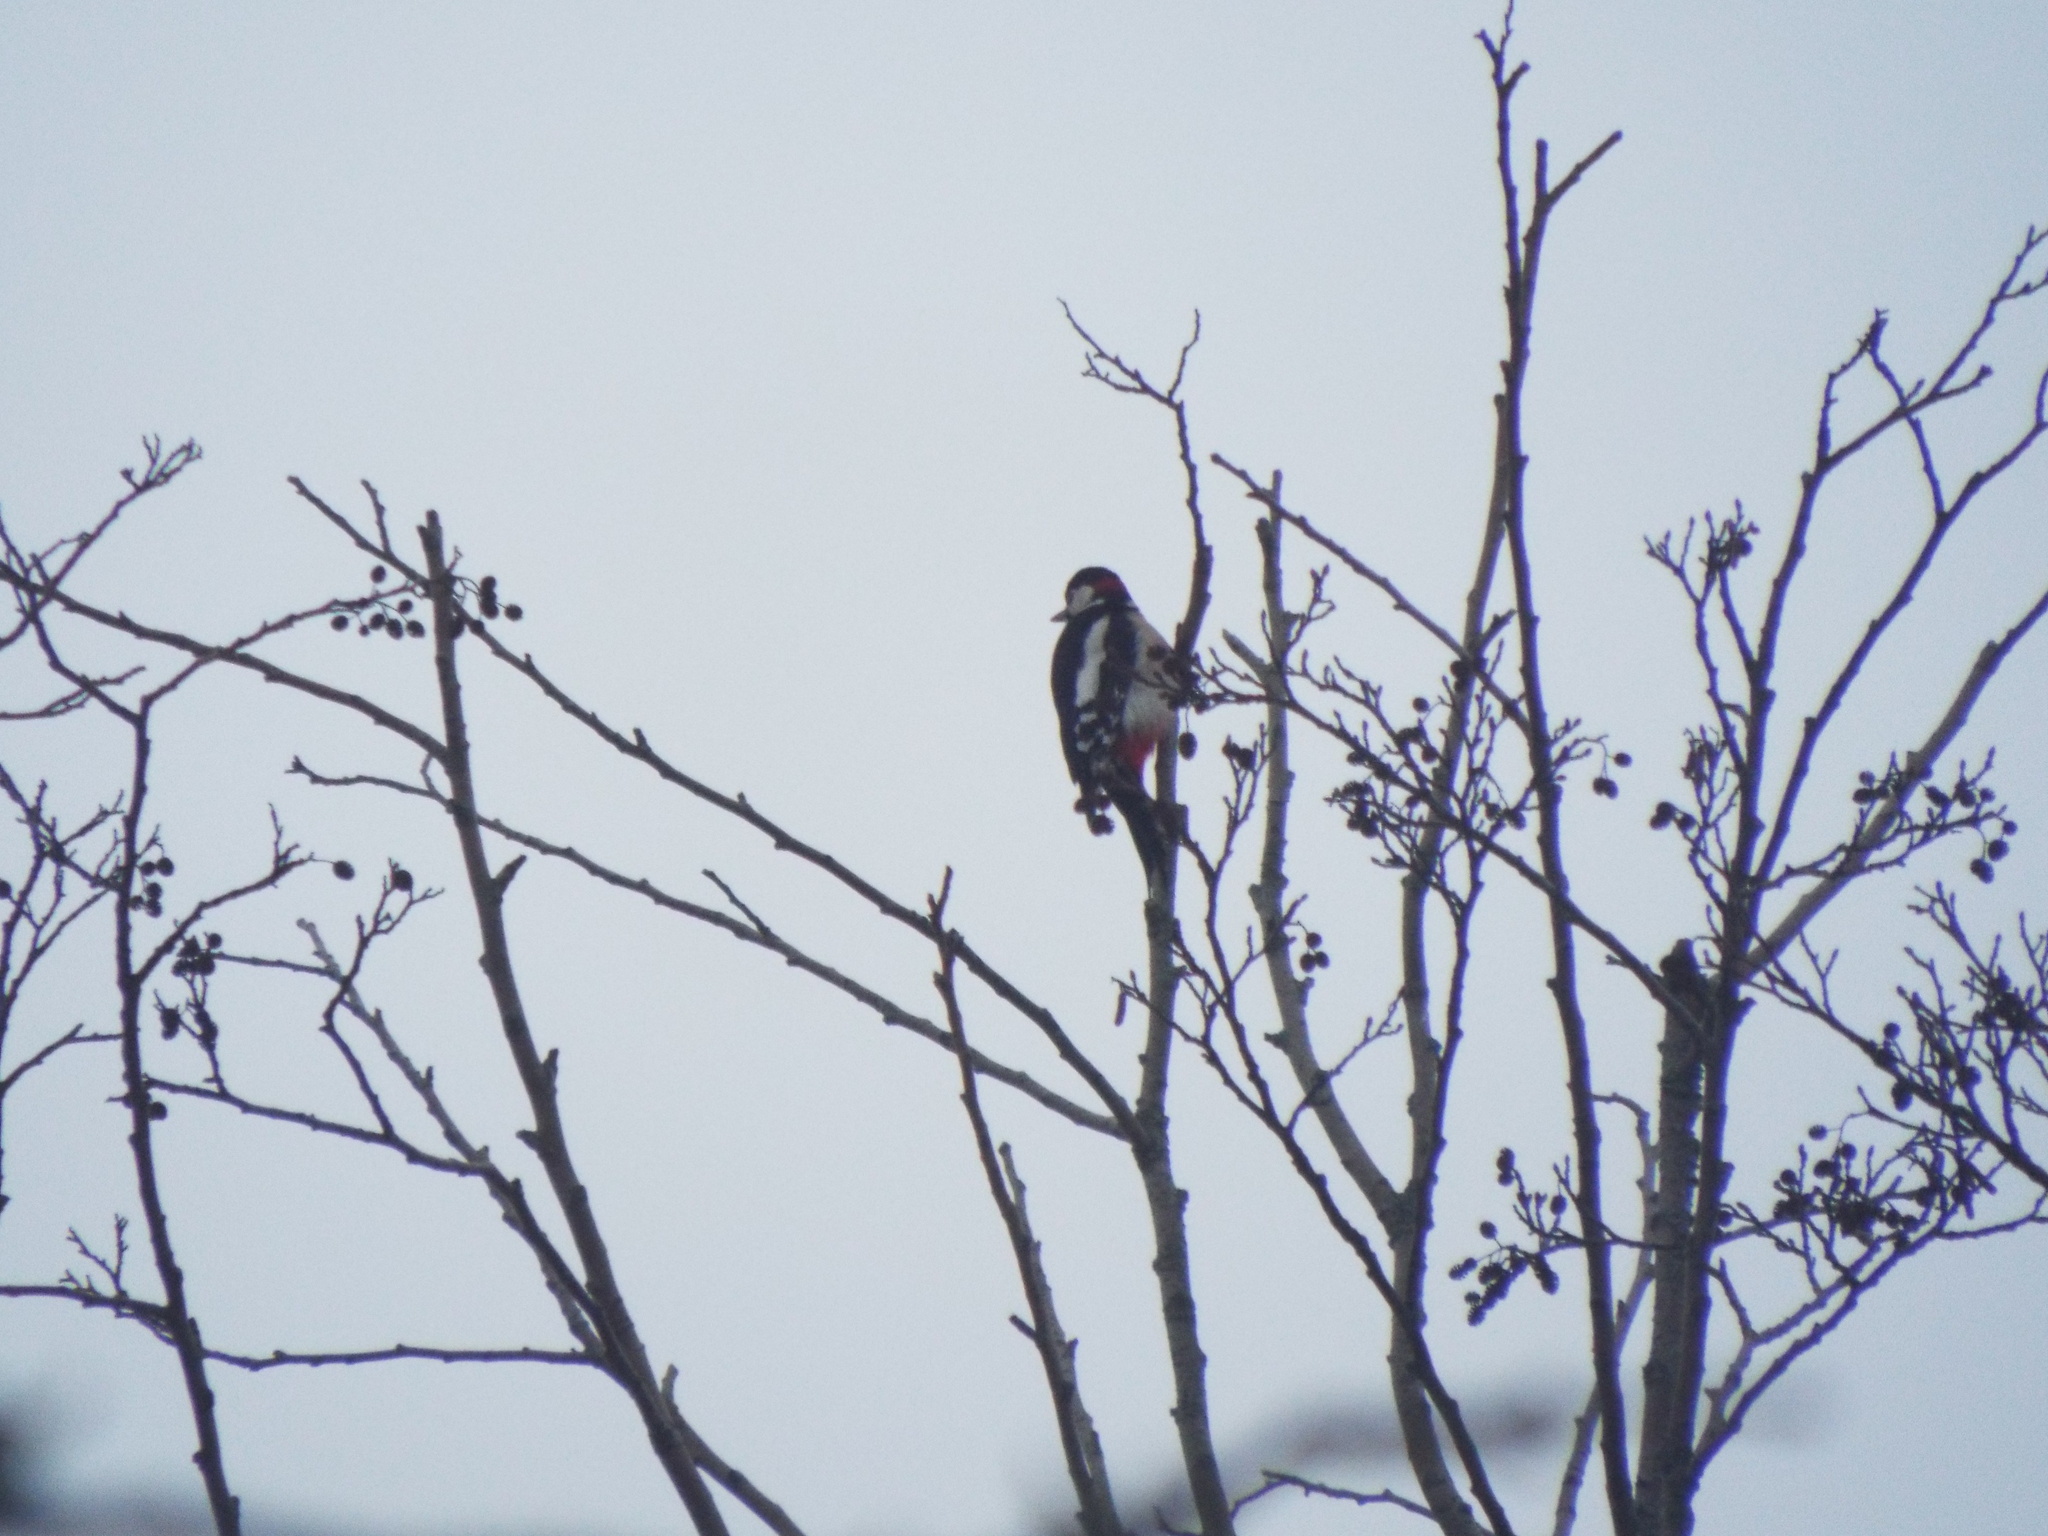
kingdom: Animalia
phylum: Chordata
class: Aves
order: Piciformes
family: Picidae
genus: Dendrocopos
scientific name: Dendrocopos major
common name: Great spotted woodpecker
